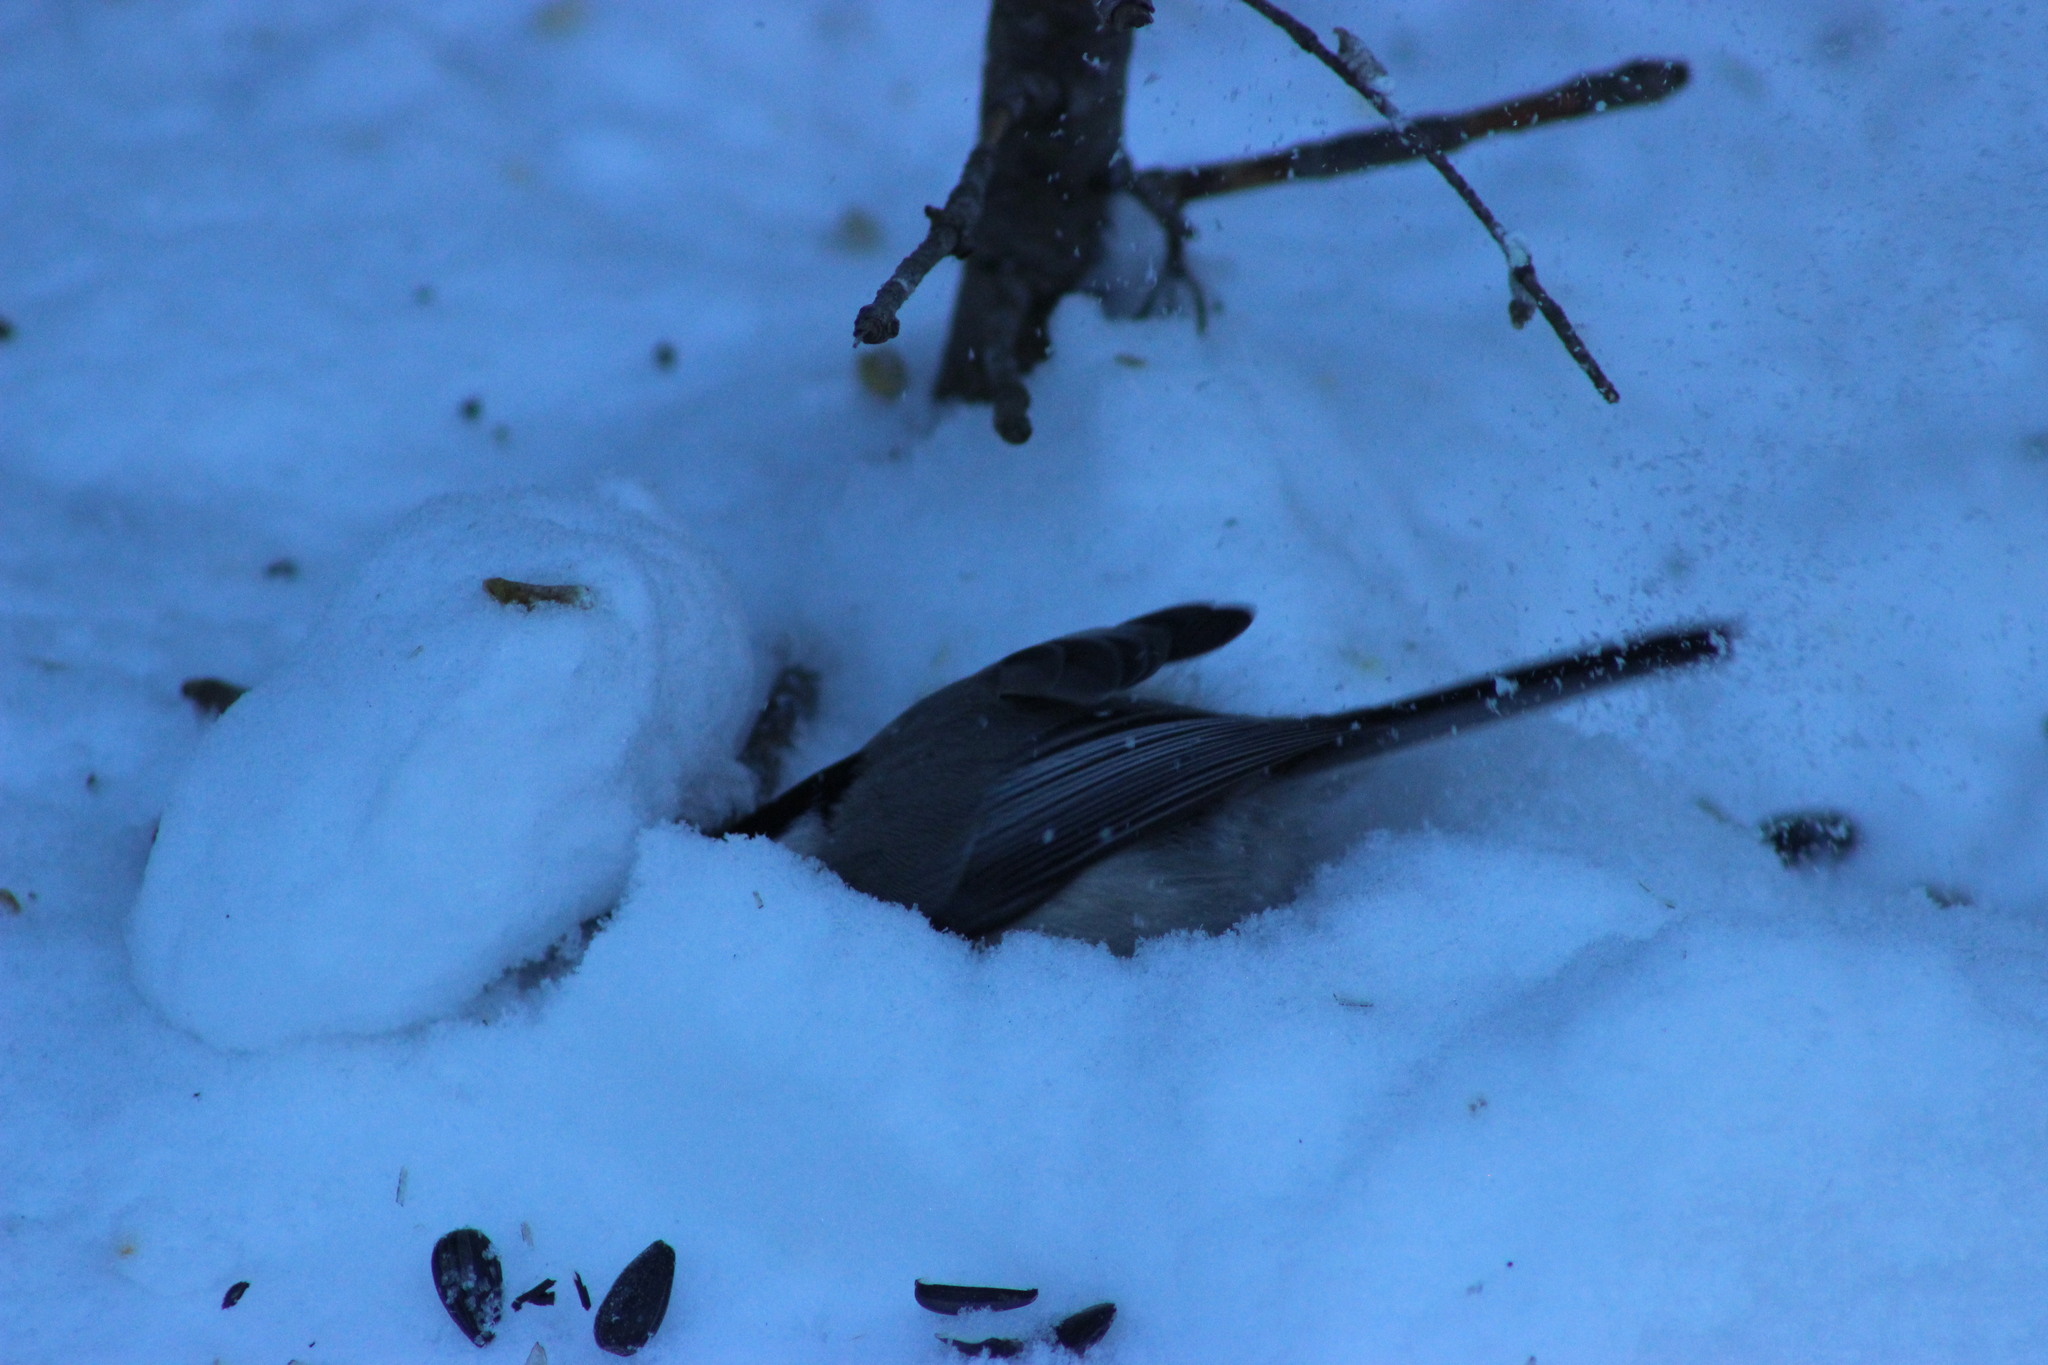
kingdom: Animalia
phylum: Chordata
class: Aves
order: Passeriformes
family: Paridae
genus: Poecile
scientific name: Poecile montanus
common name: Willow tit
